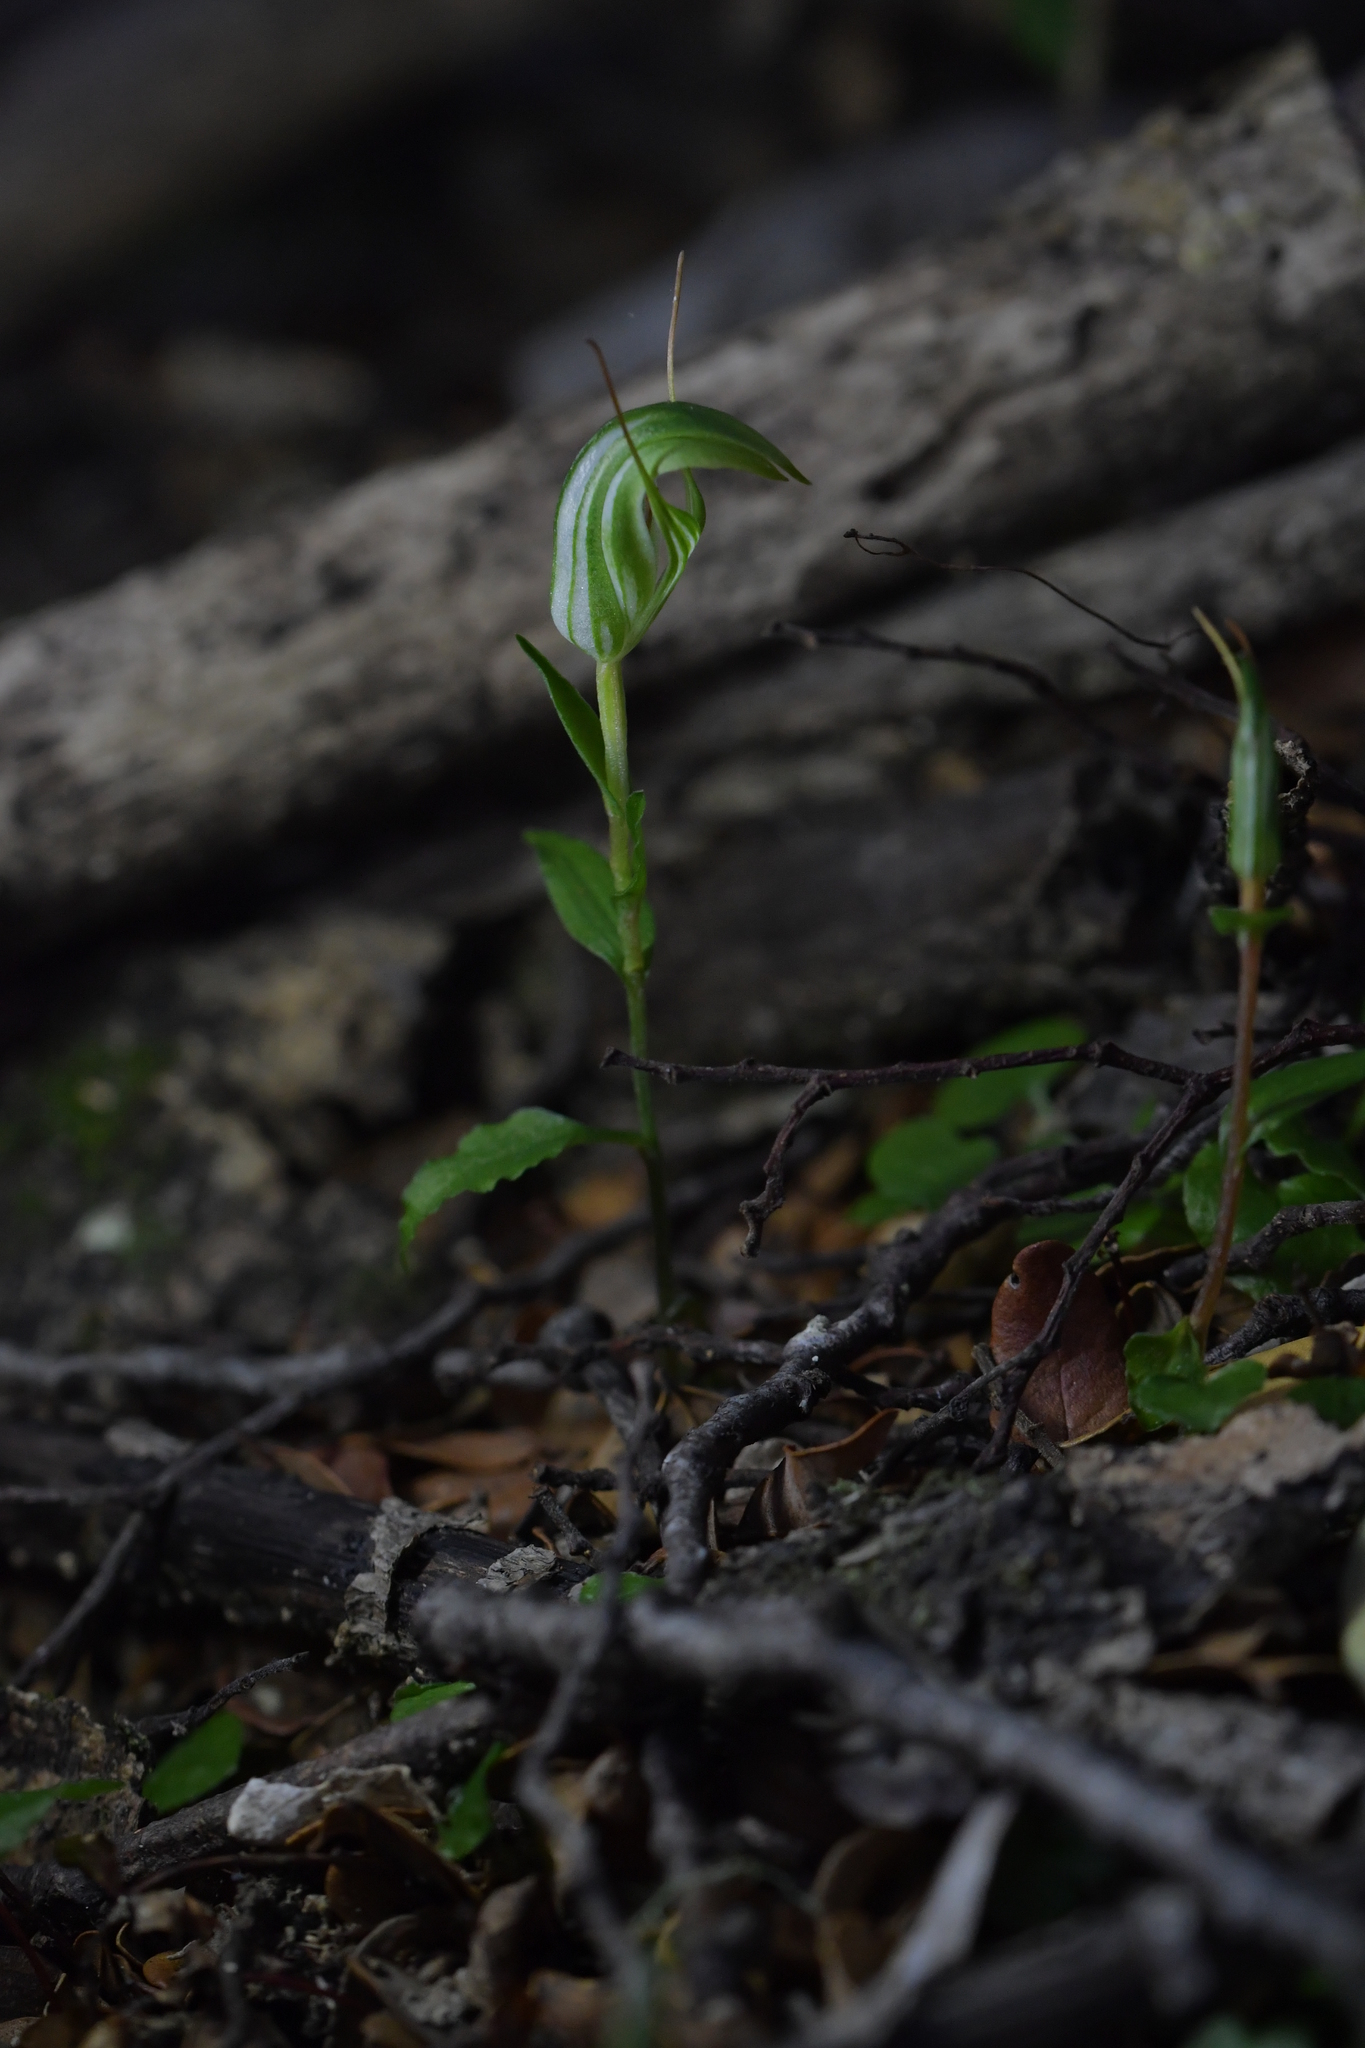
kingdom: Plantae
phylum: Tracheophyta
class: Liliopsida
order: Asparagales
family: Orchidaceae
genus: Pterostylis
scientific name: Pterostylis alobula
